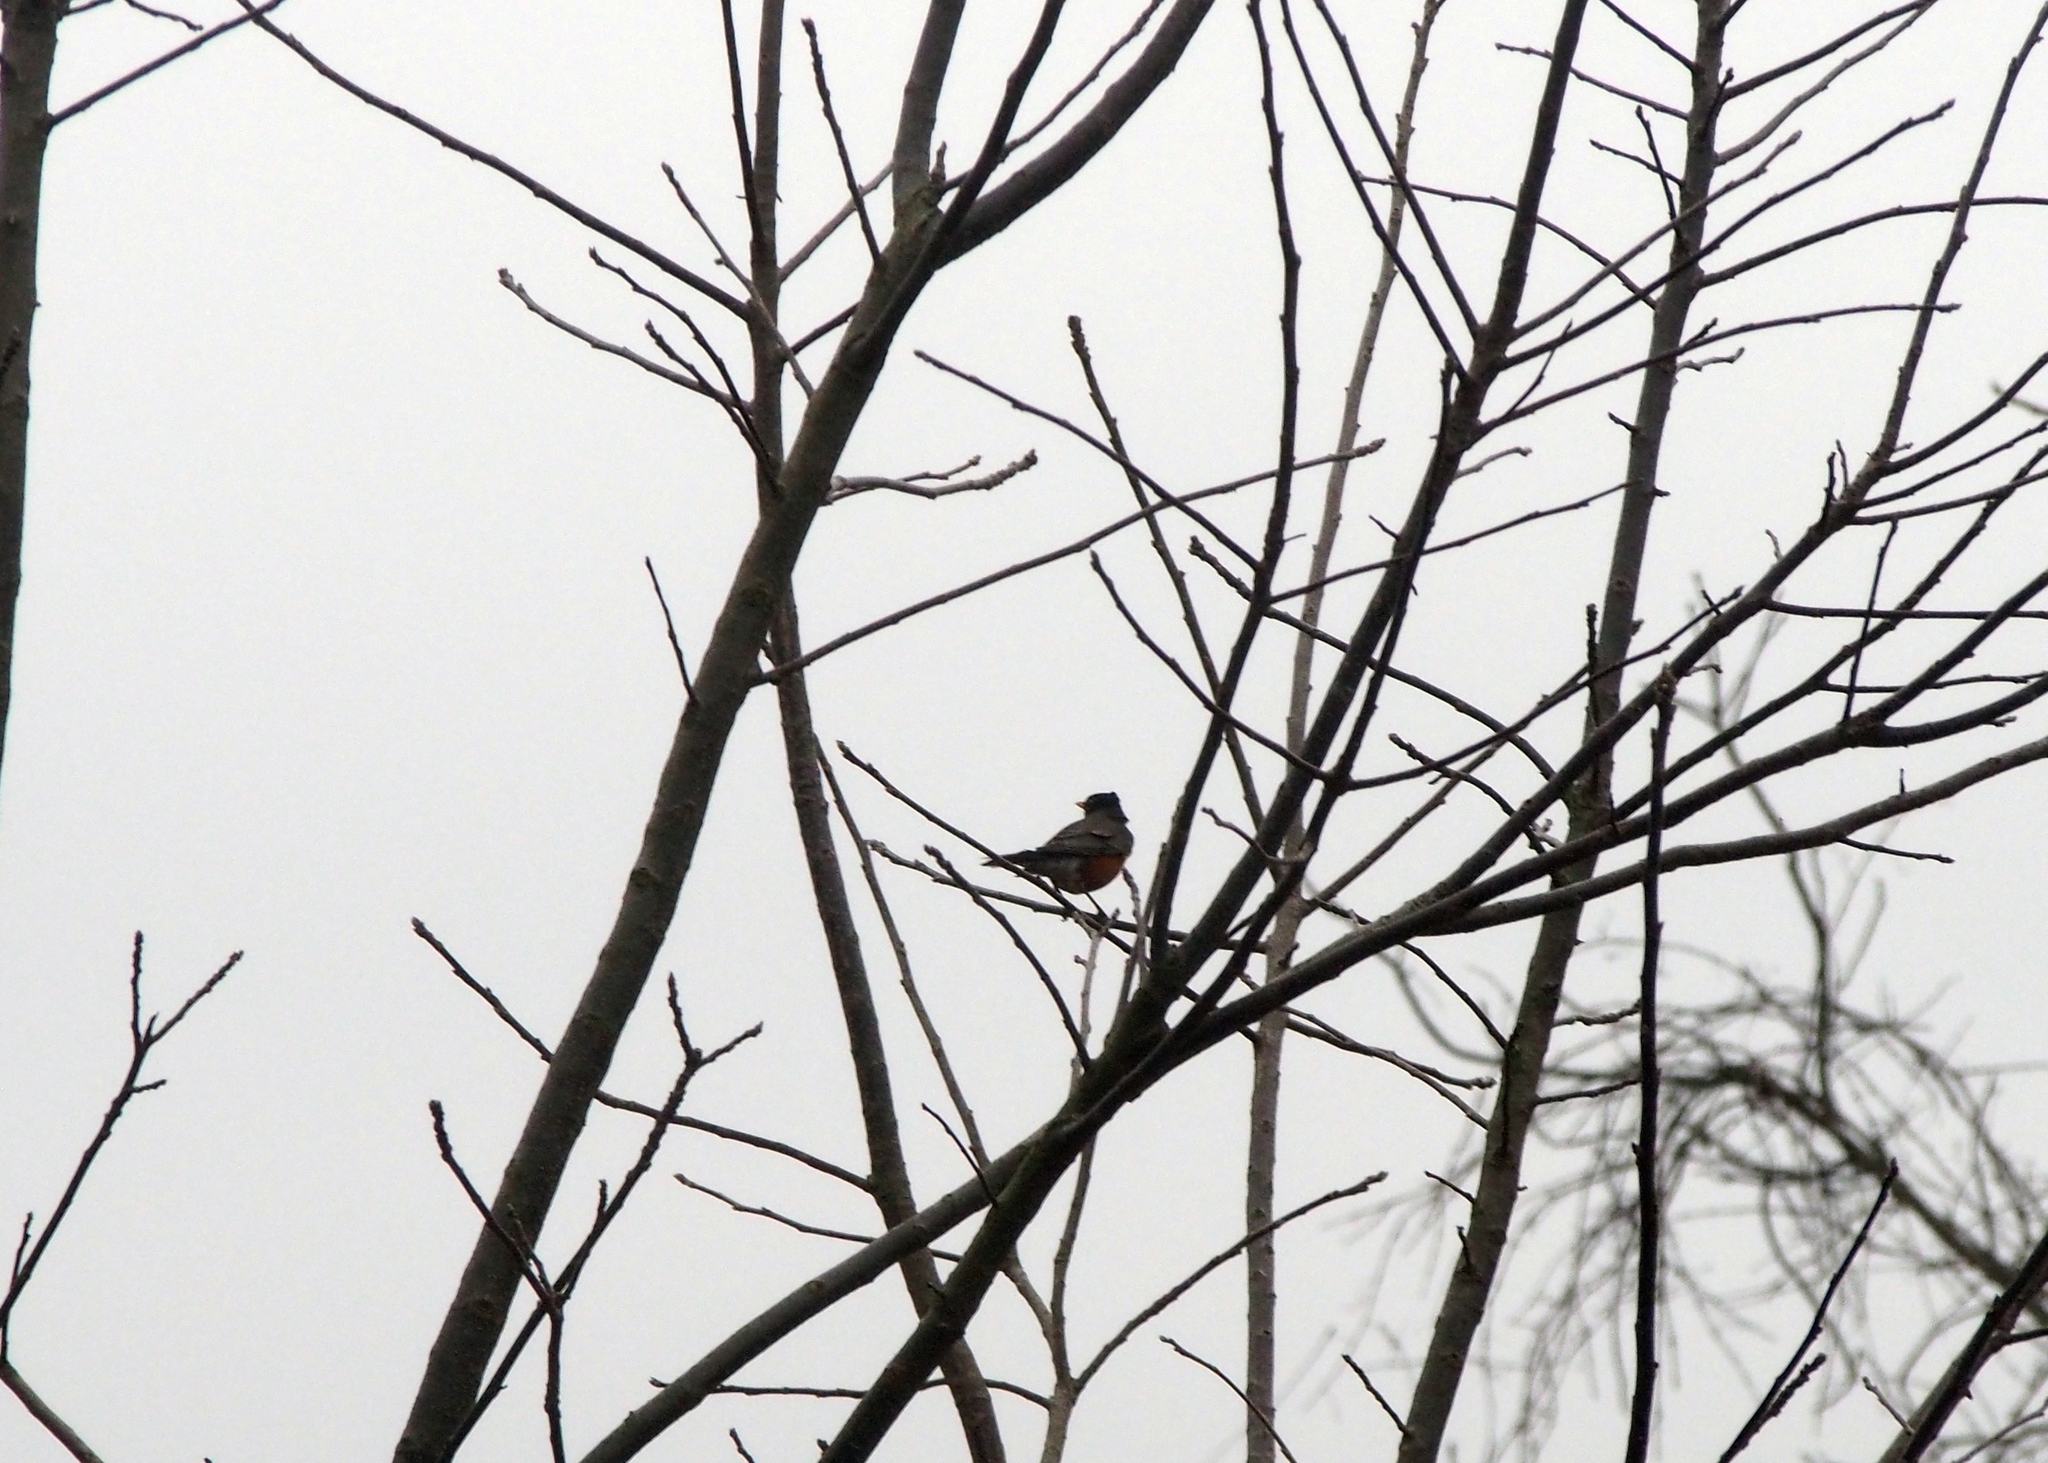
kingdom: Animalia
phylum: Chordata
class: Aves
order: Passeriformes
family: Turdidae
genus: Turdus
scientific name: Turdus migratorius
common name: American robin
